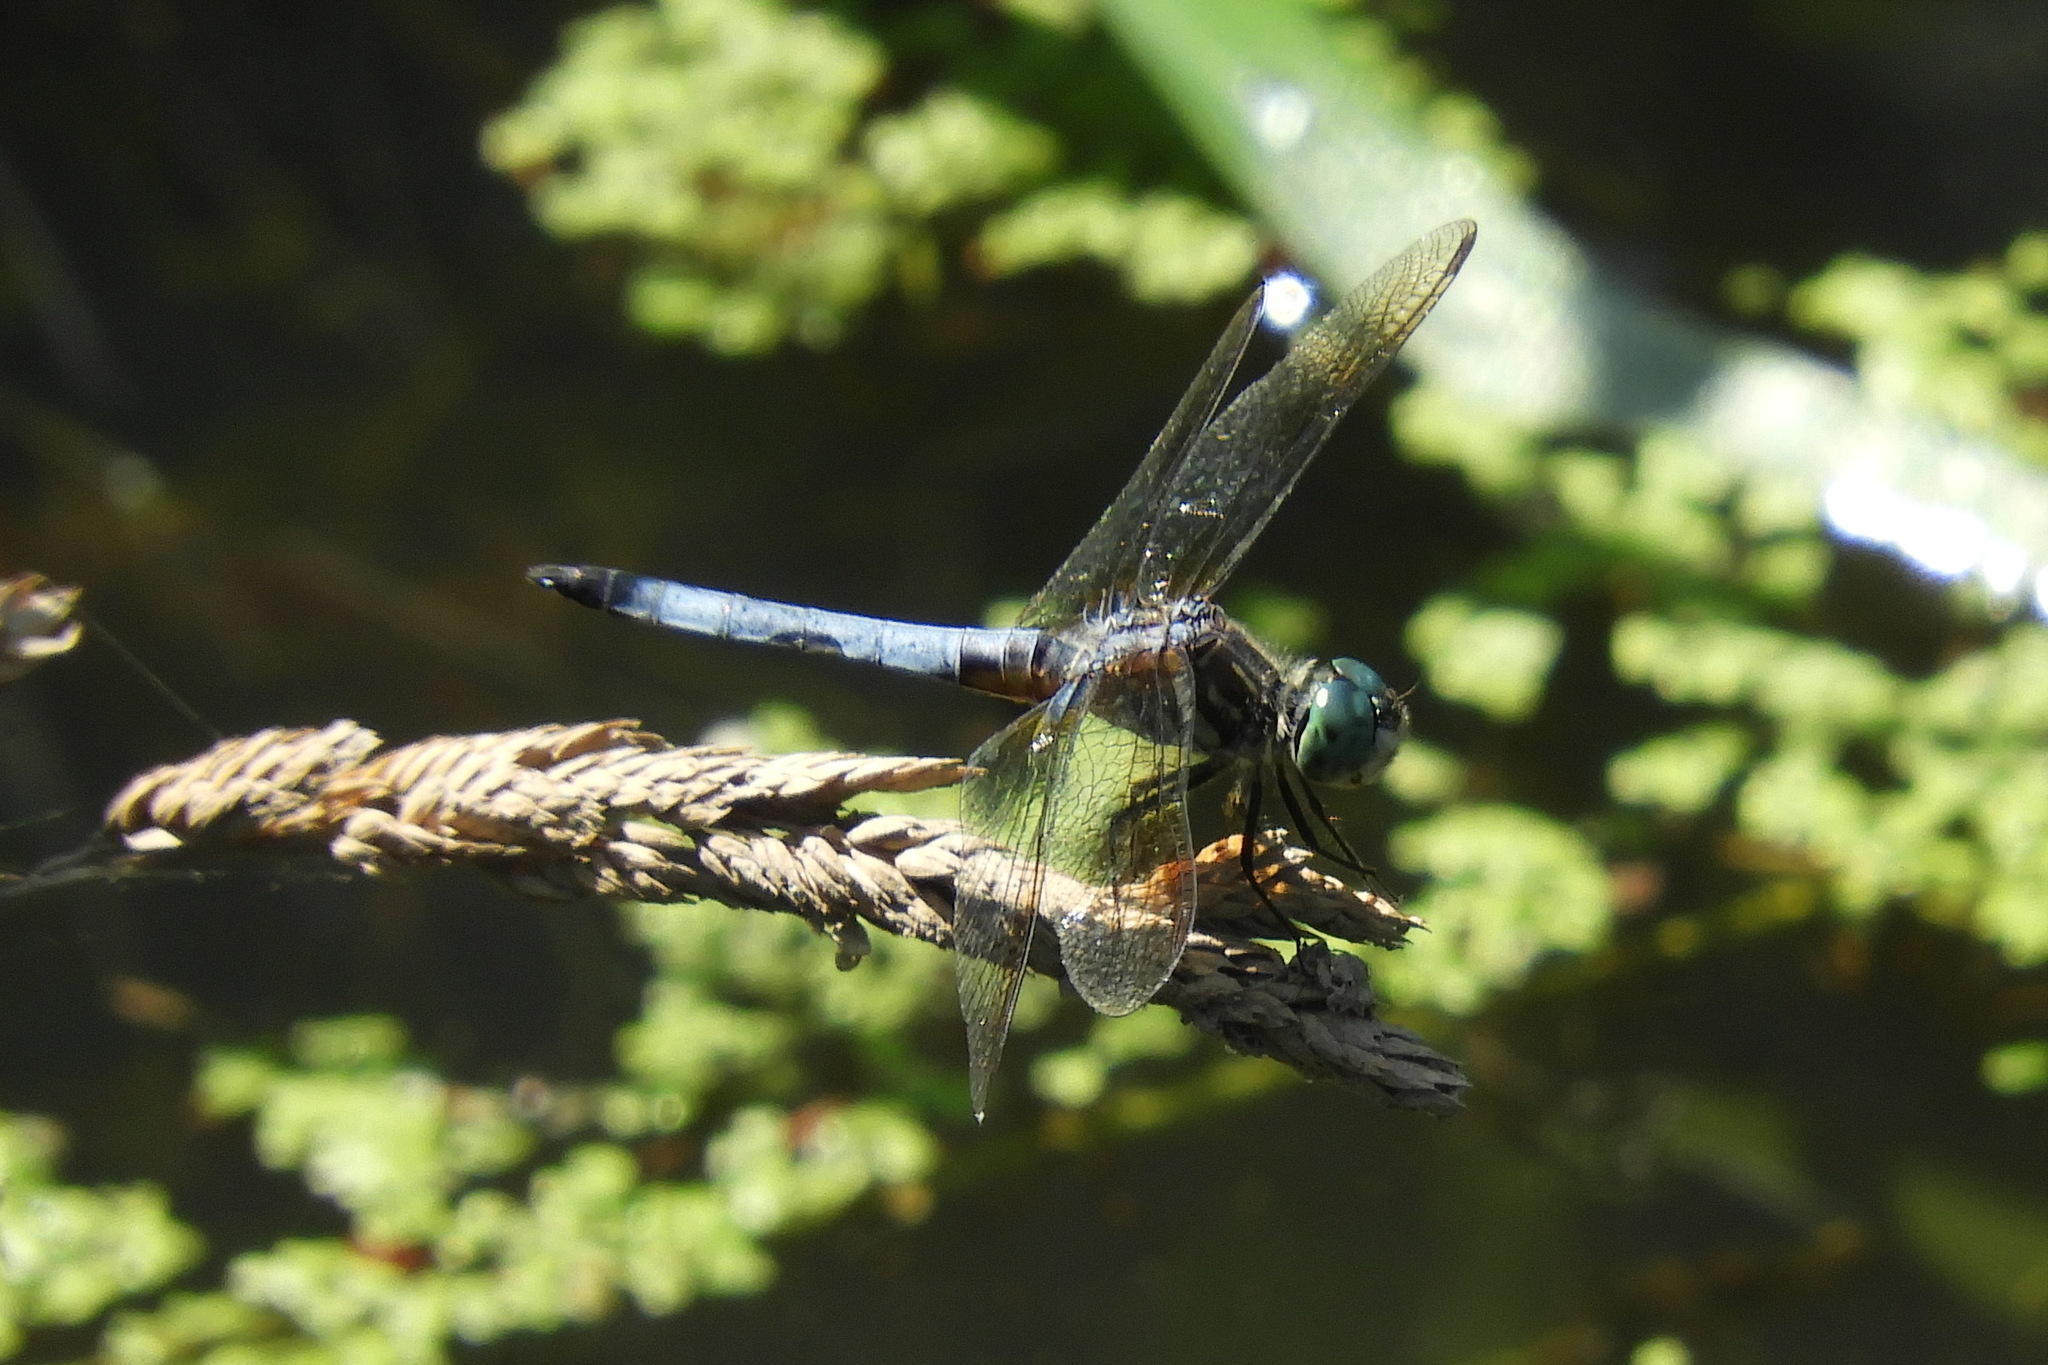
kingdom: Animalia
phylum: Arthropoda
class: Insecta
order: Odonata
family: Libellulidae
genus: Pachydiplax
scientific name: Pachydiplax longipennis
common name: Blue dasher
